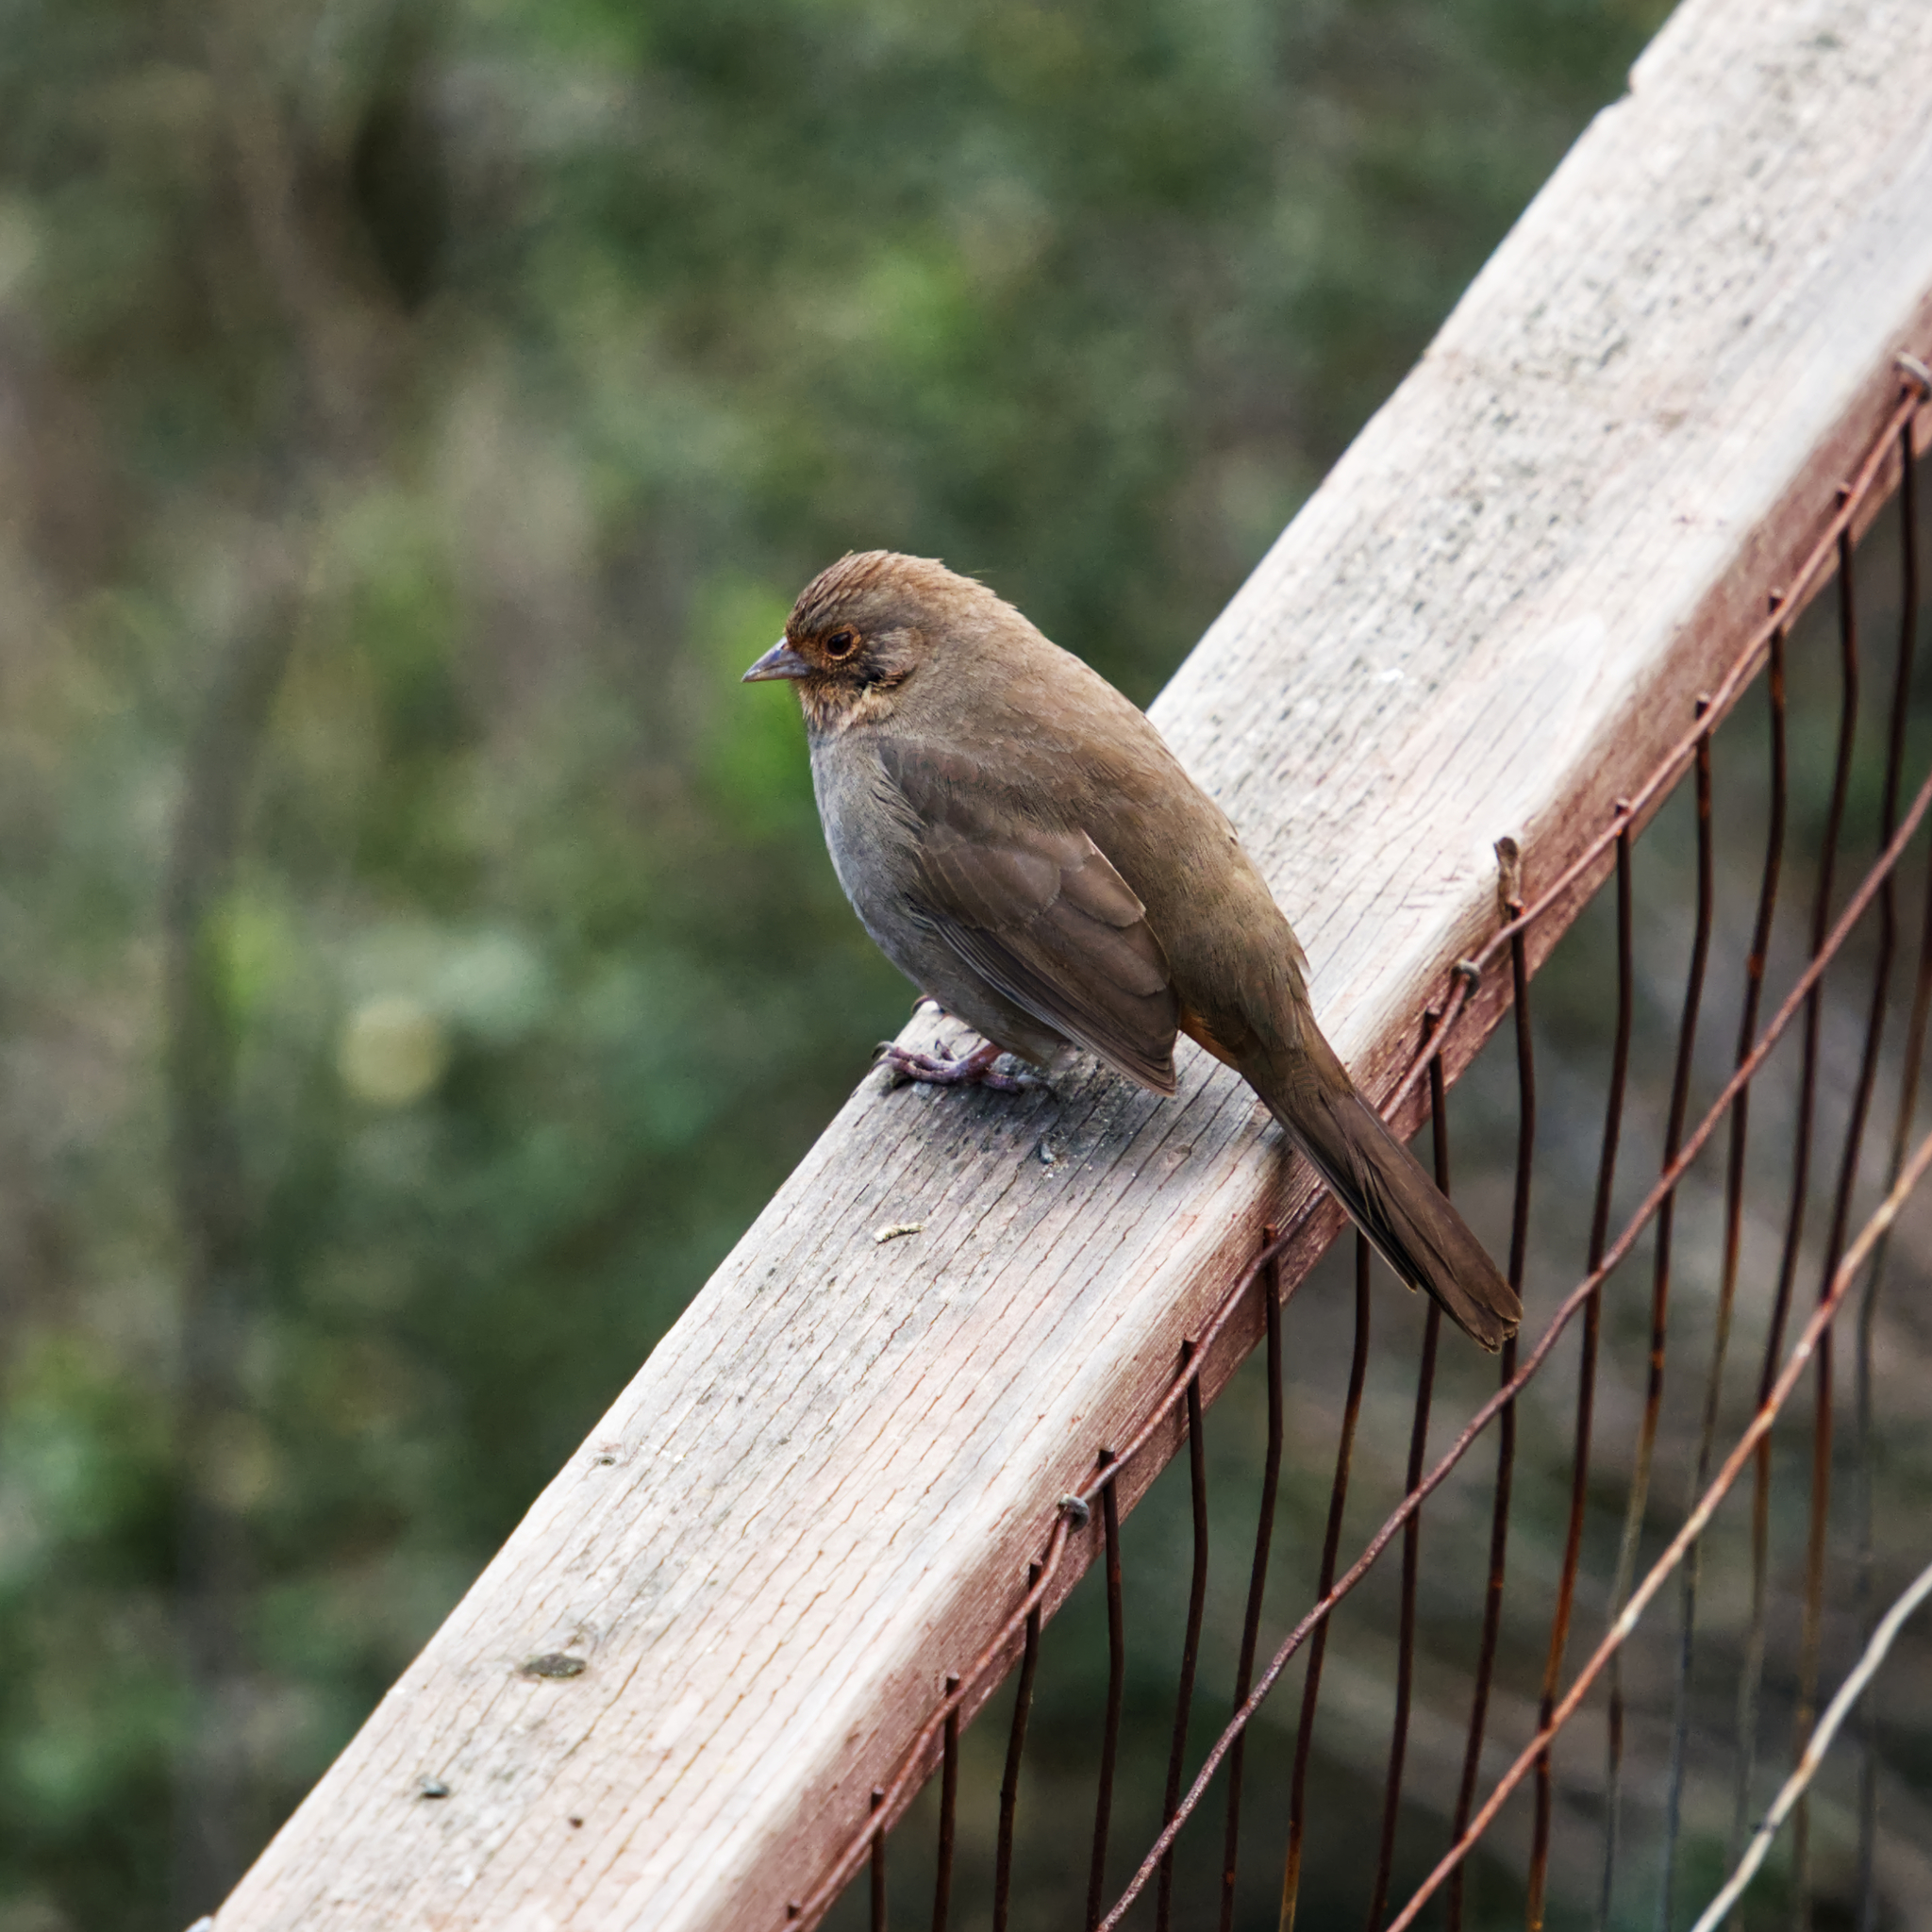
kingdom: Animalia
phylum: Chordata
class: Aves
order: Passeriformes
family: Passerellidae
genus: Melozone
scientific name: Melozone crissalis
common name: California towhee
